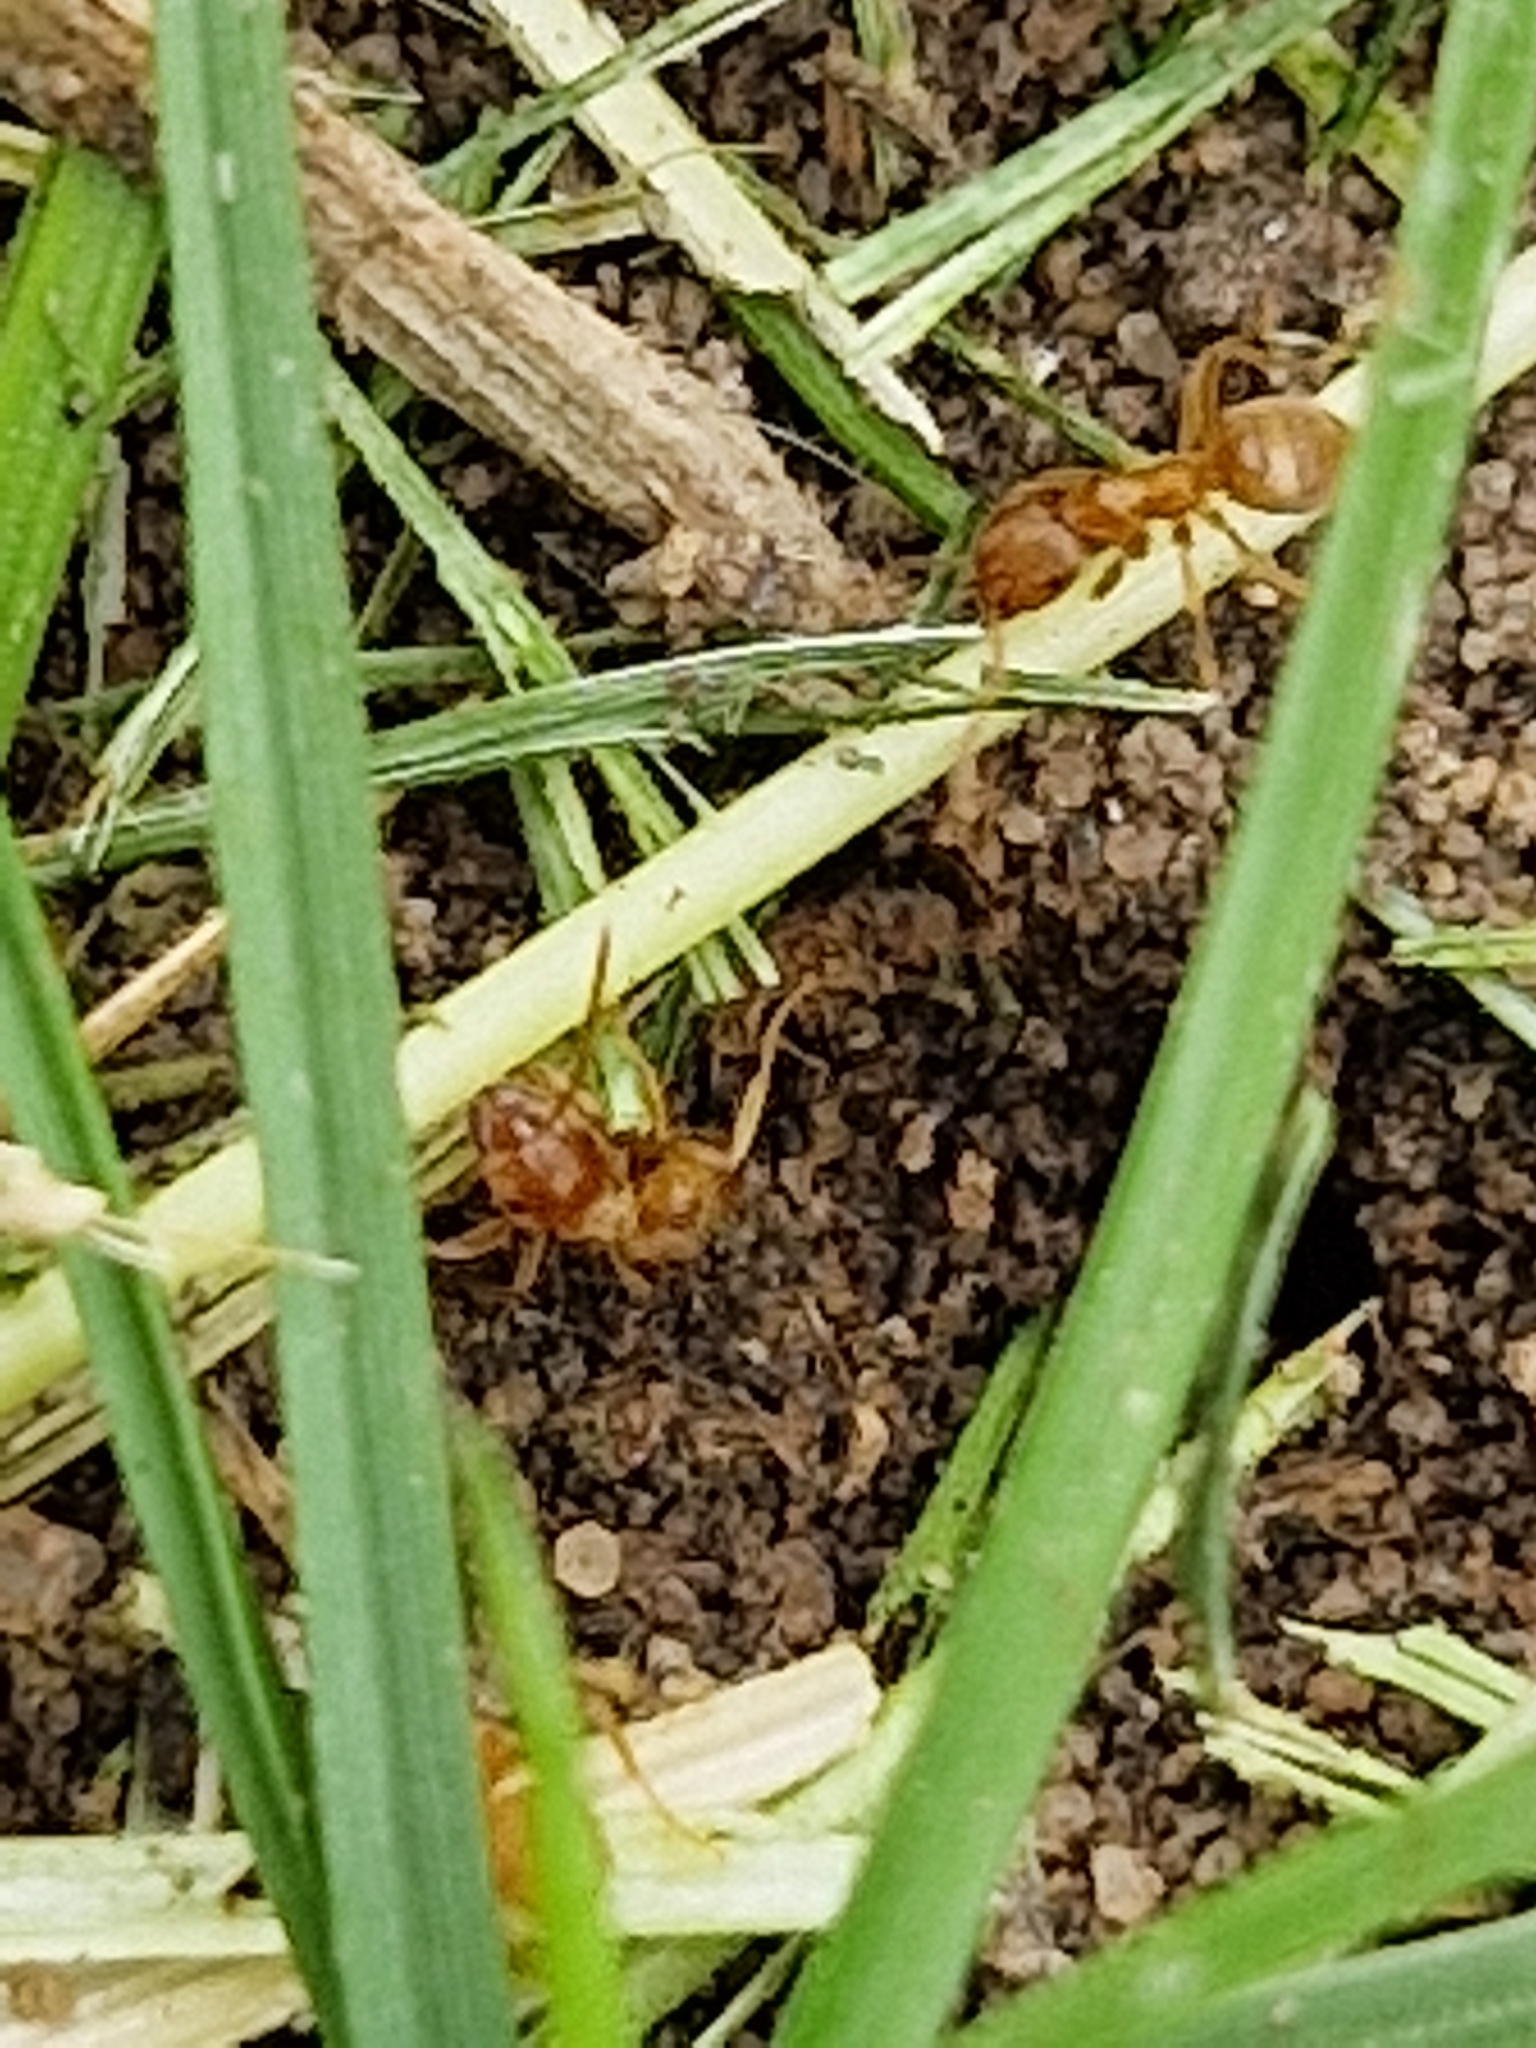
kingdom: Animalia
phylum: Arthropoda
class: Insecta
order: Hymenoptera
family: Formicidae
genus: Lasius
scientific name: Lasius flavus
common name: Blond field ant
